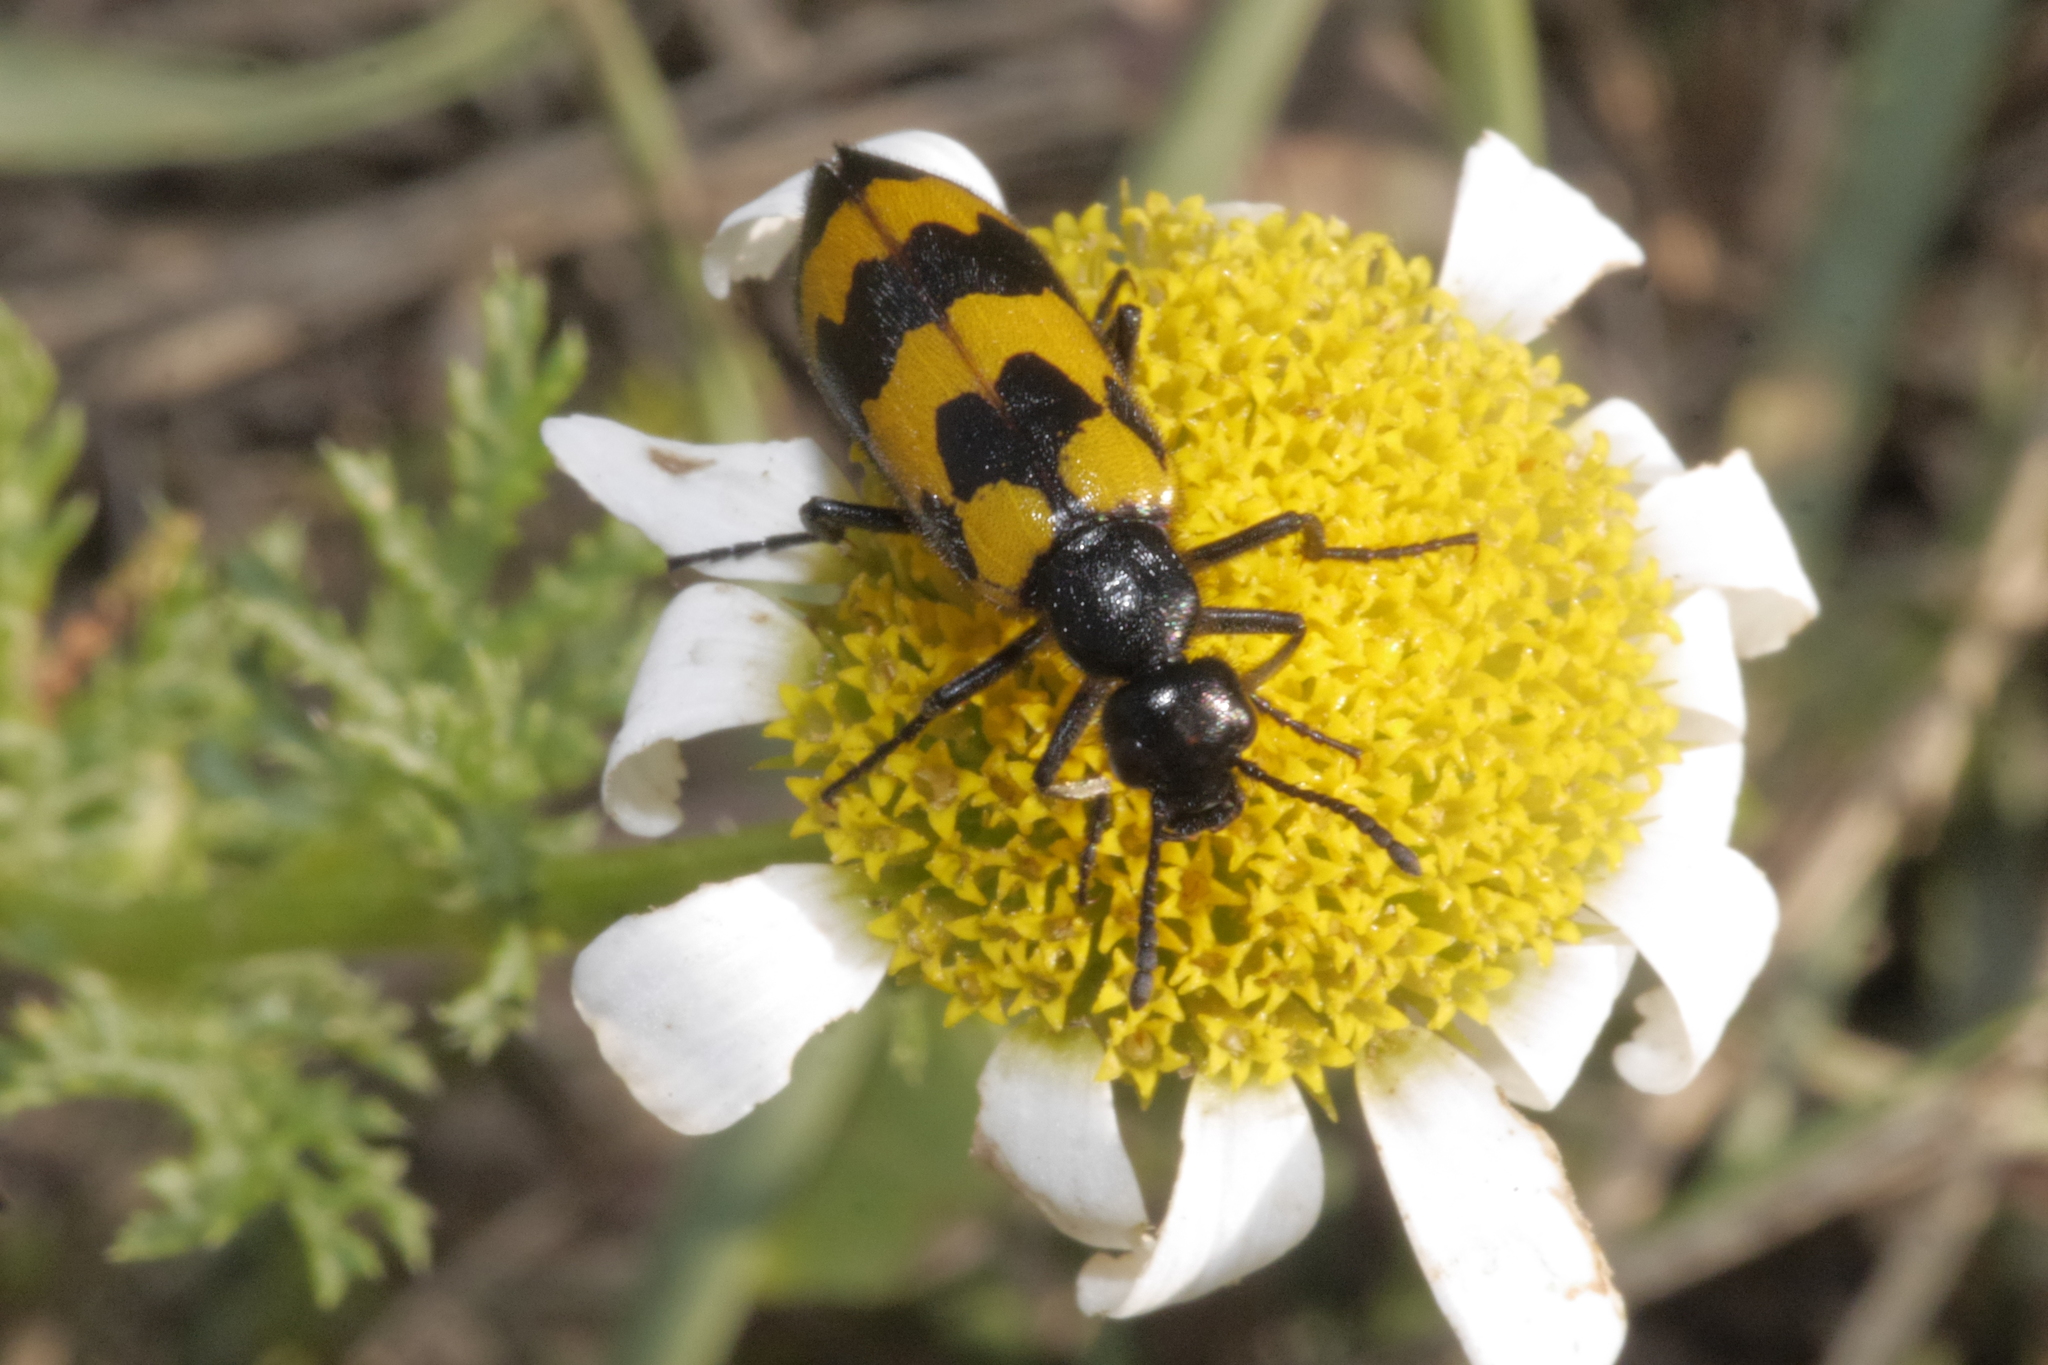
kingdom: Animalia
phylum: Arthropoda
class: Insecta
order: Coleoptera
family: Meloidae
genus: Mylabris
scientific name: Mylabris variabilis
